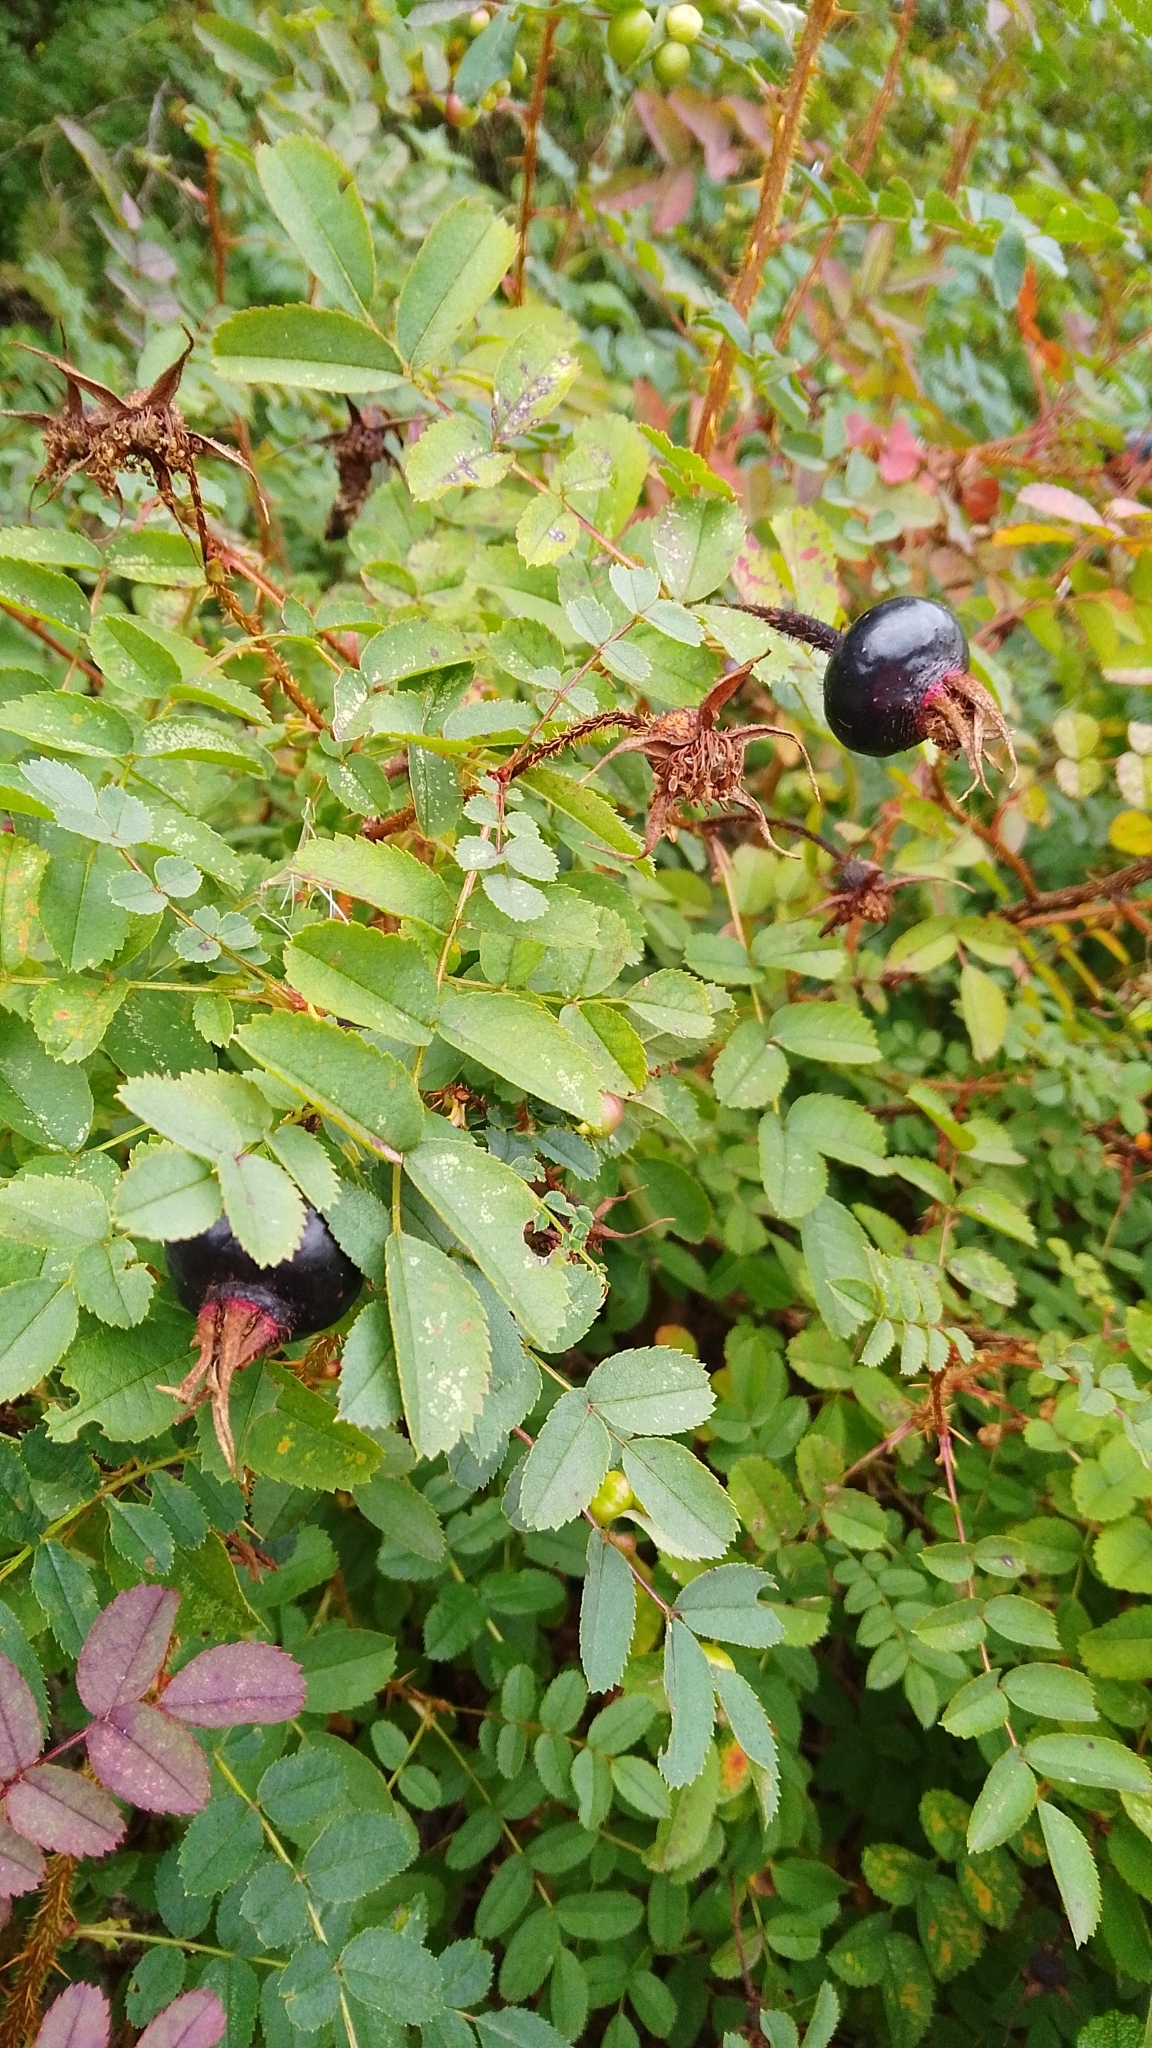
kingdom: Plantae
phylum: Tracheophyta
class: Magnoliopsida
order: Rosales
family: Rosaceae
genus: Rosa
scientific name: Rosa spinosissima
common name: Burnet rose
